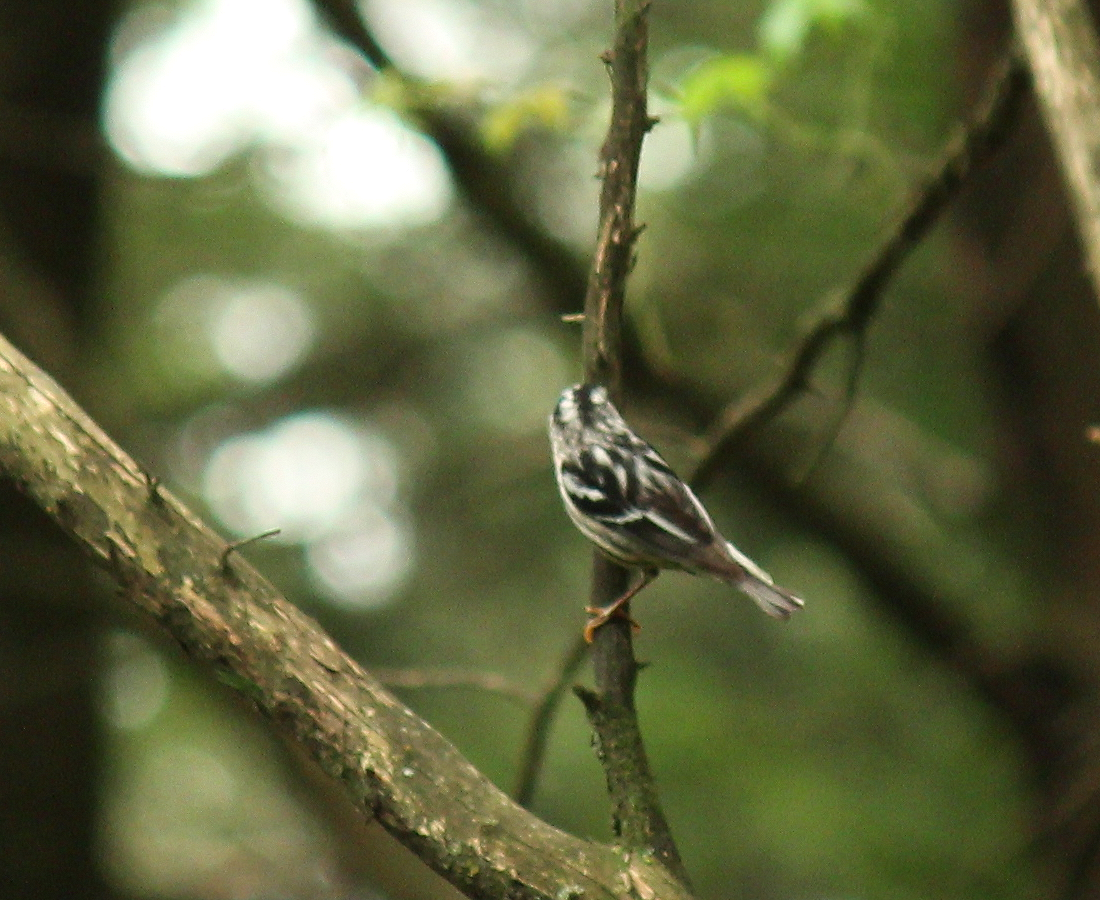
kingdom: Animalia
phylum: Chordata
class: Aves
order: Passeriformes
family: Parulidae
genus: Mniotilta
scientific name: Mniotilta varia
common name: Black-and-white warbler
